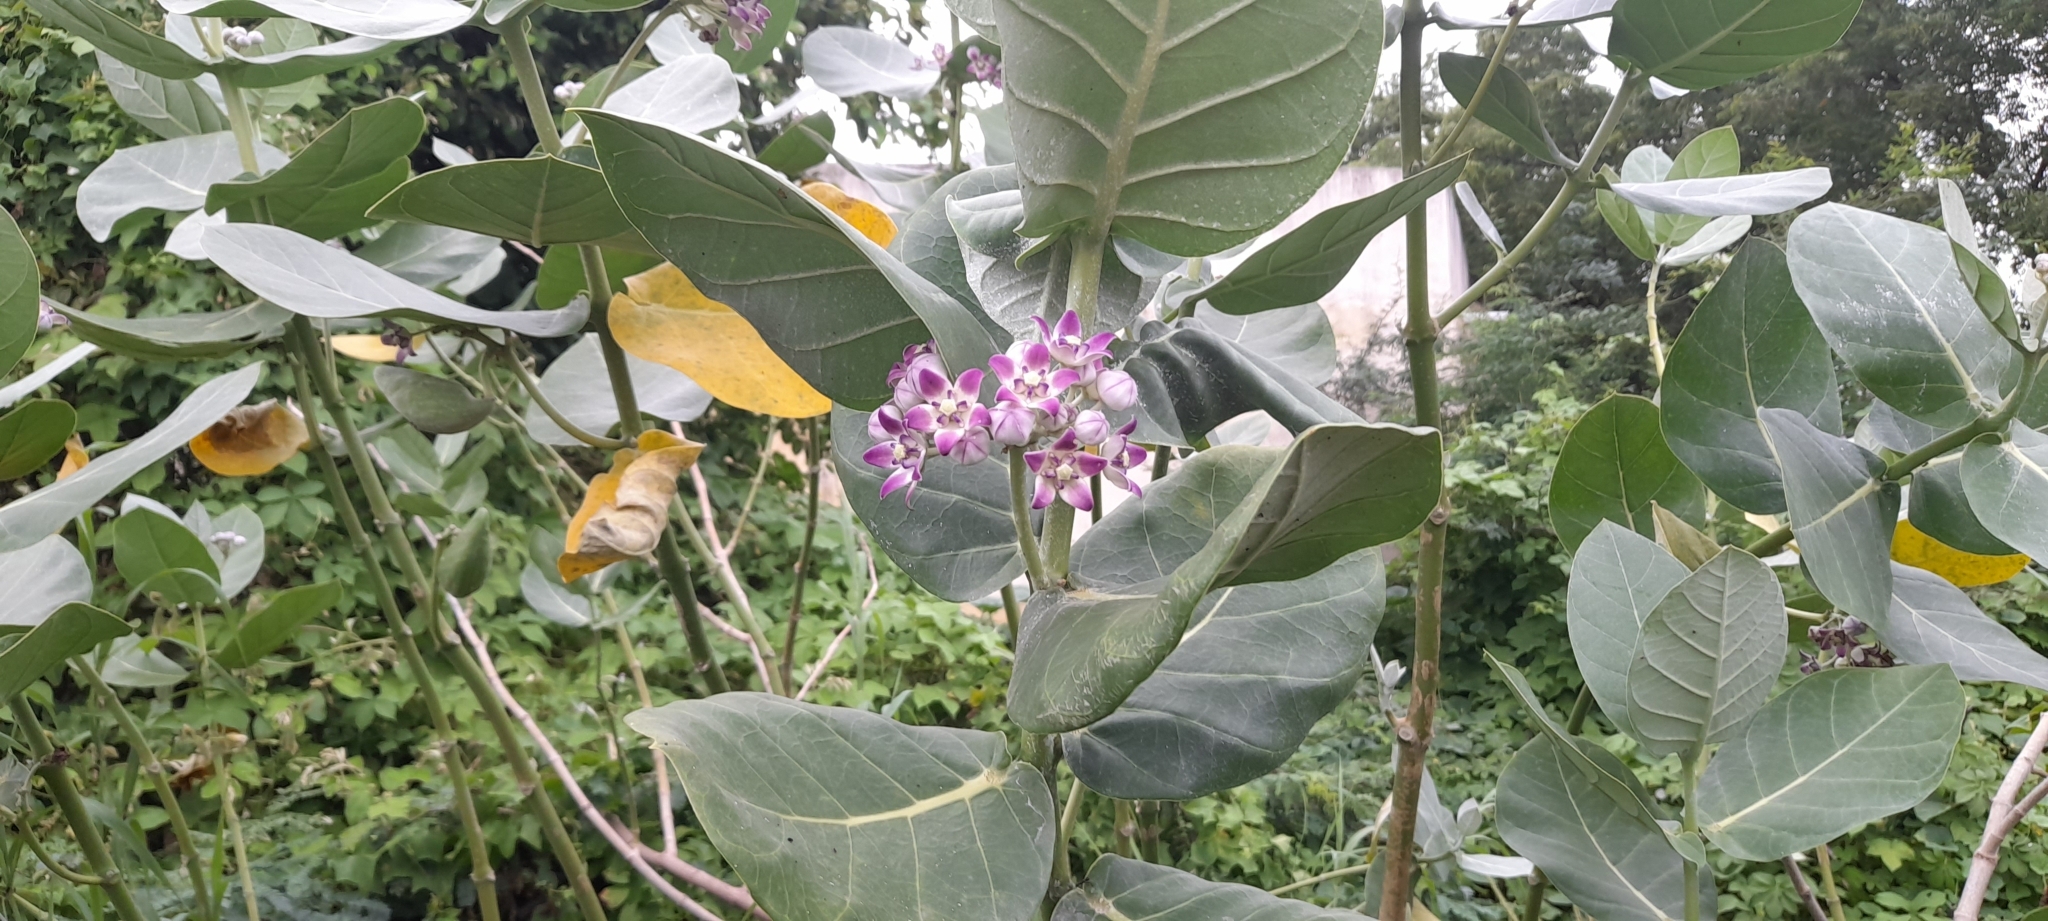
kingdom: Plantae
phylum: Tracheophyta
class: Magnoliopsida
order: Gentianales
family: Apocynaceae
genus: Calotropis
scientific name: Calotropis procera
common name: Roostertree
